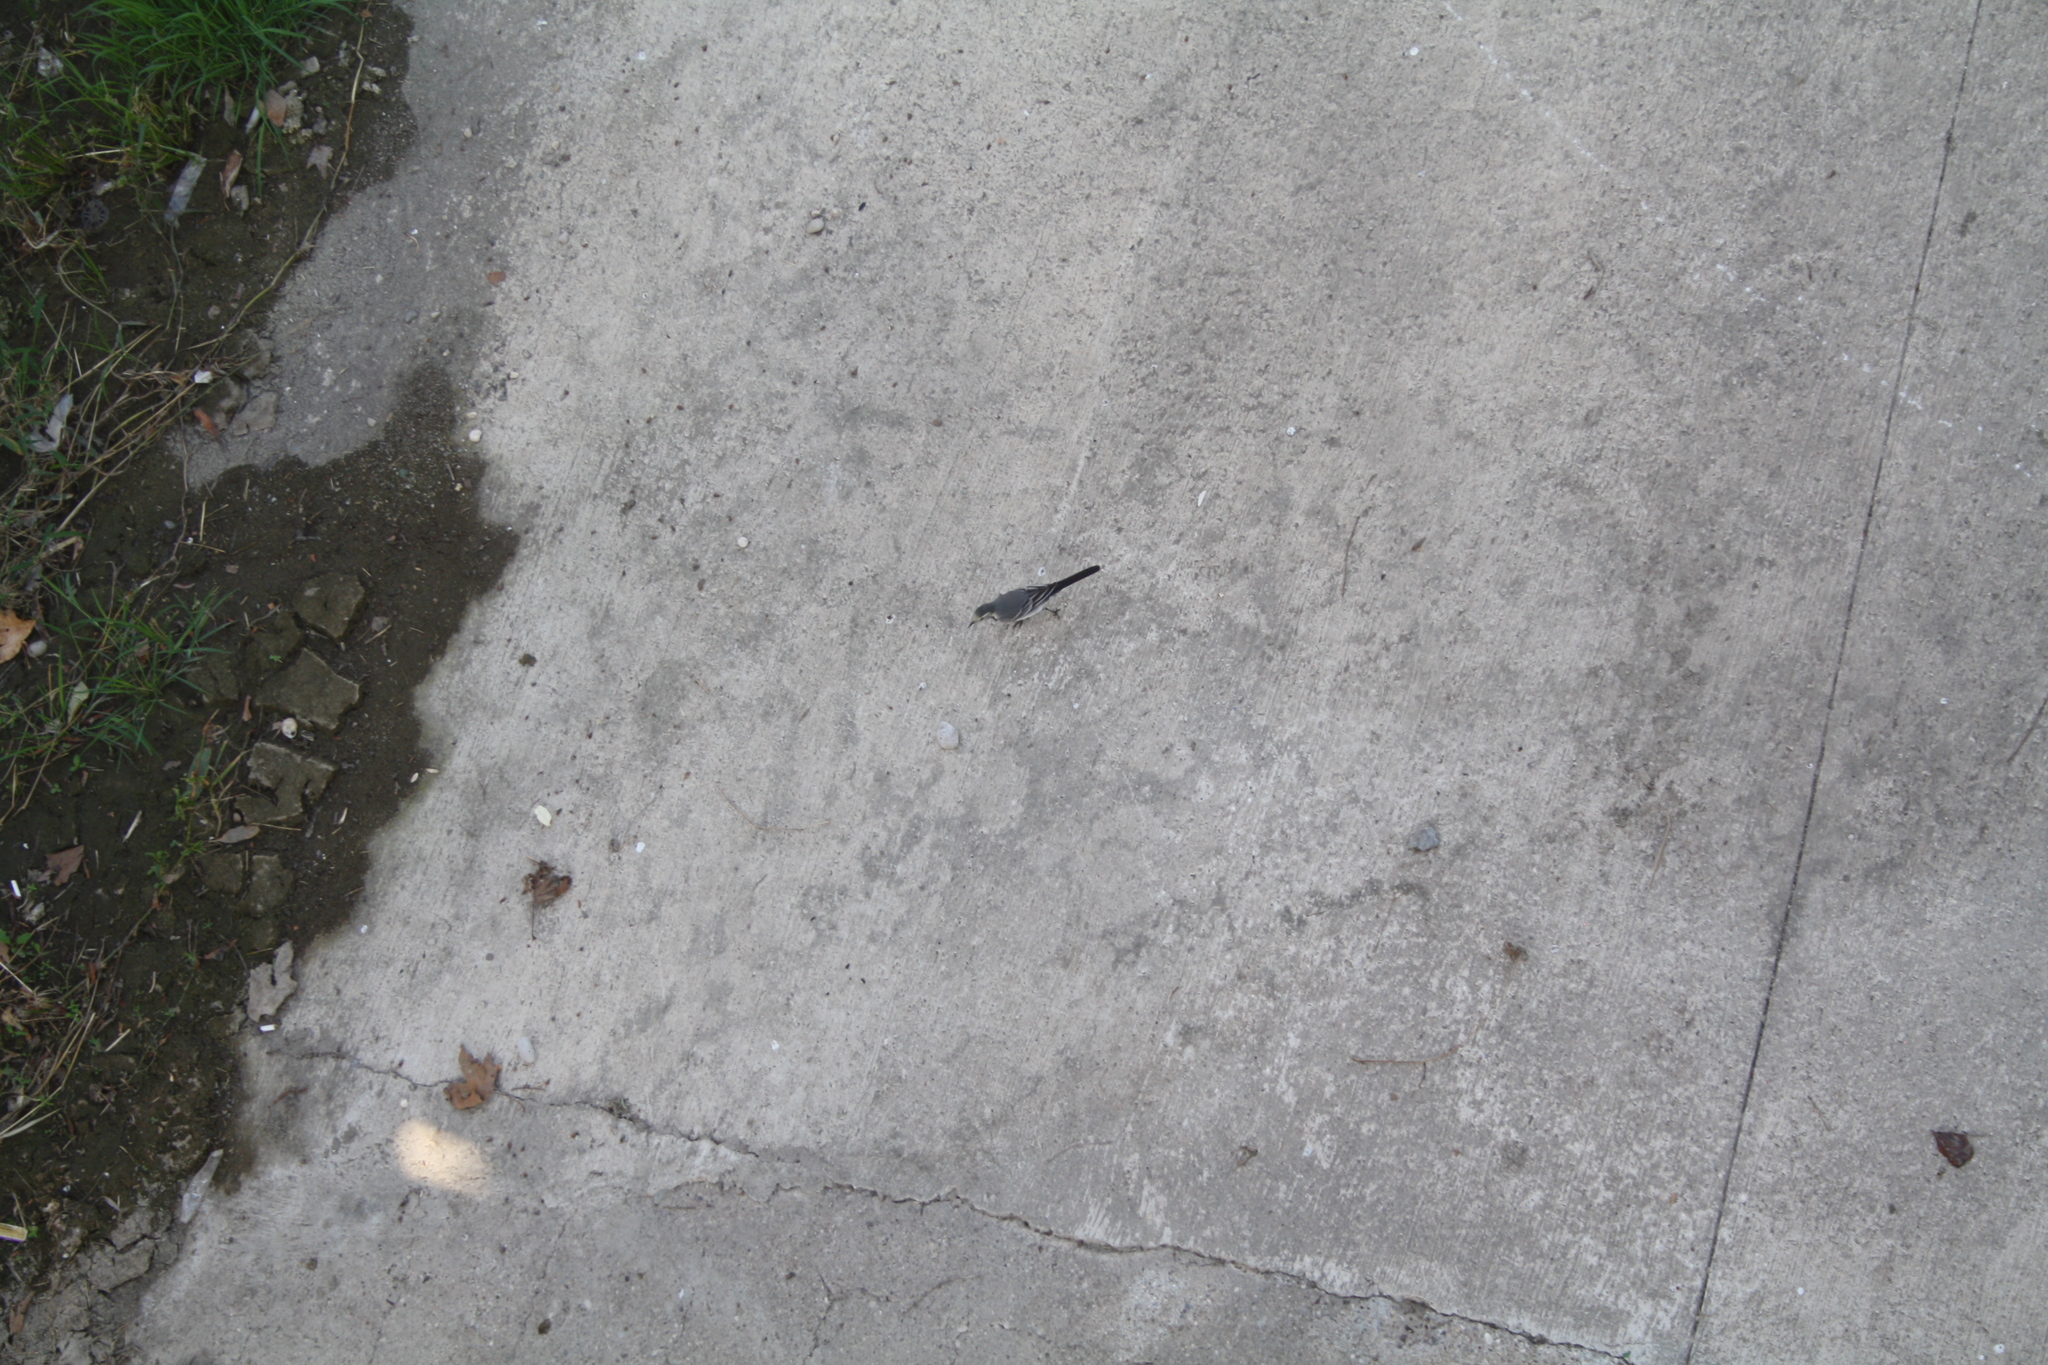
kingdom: Animalia
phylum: Chordata
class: Aves
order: Passeriformes
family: Motacillidae
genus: Motacilla
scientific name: Motacilla alba
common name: White wagtail
